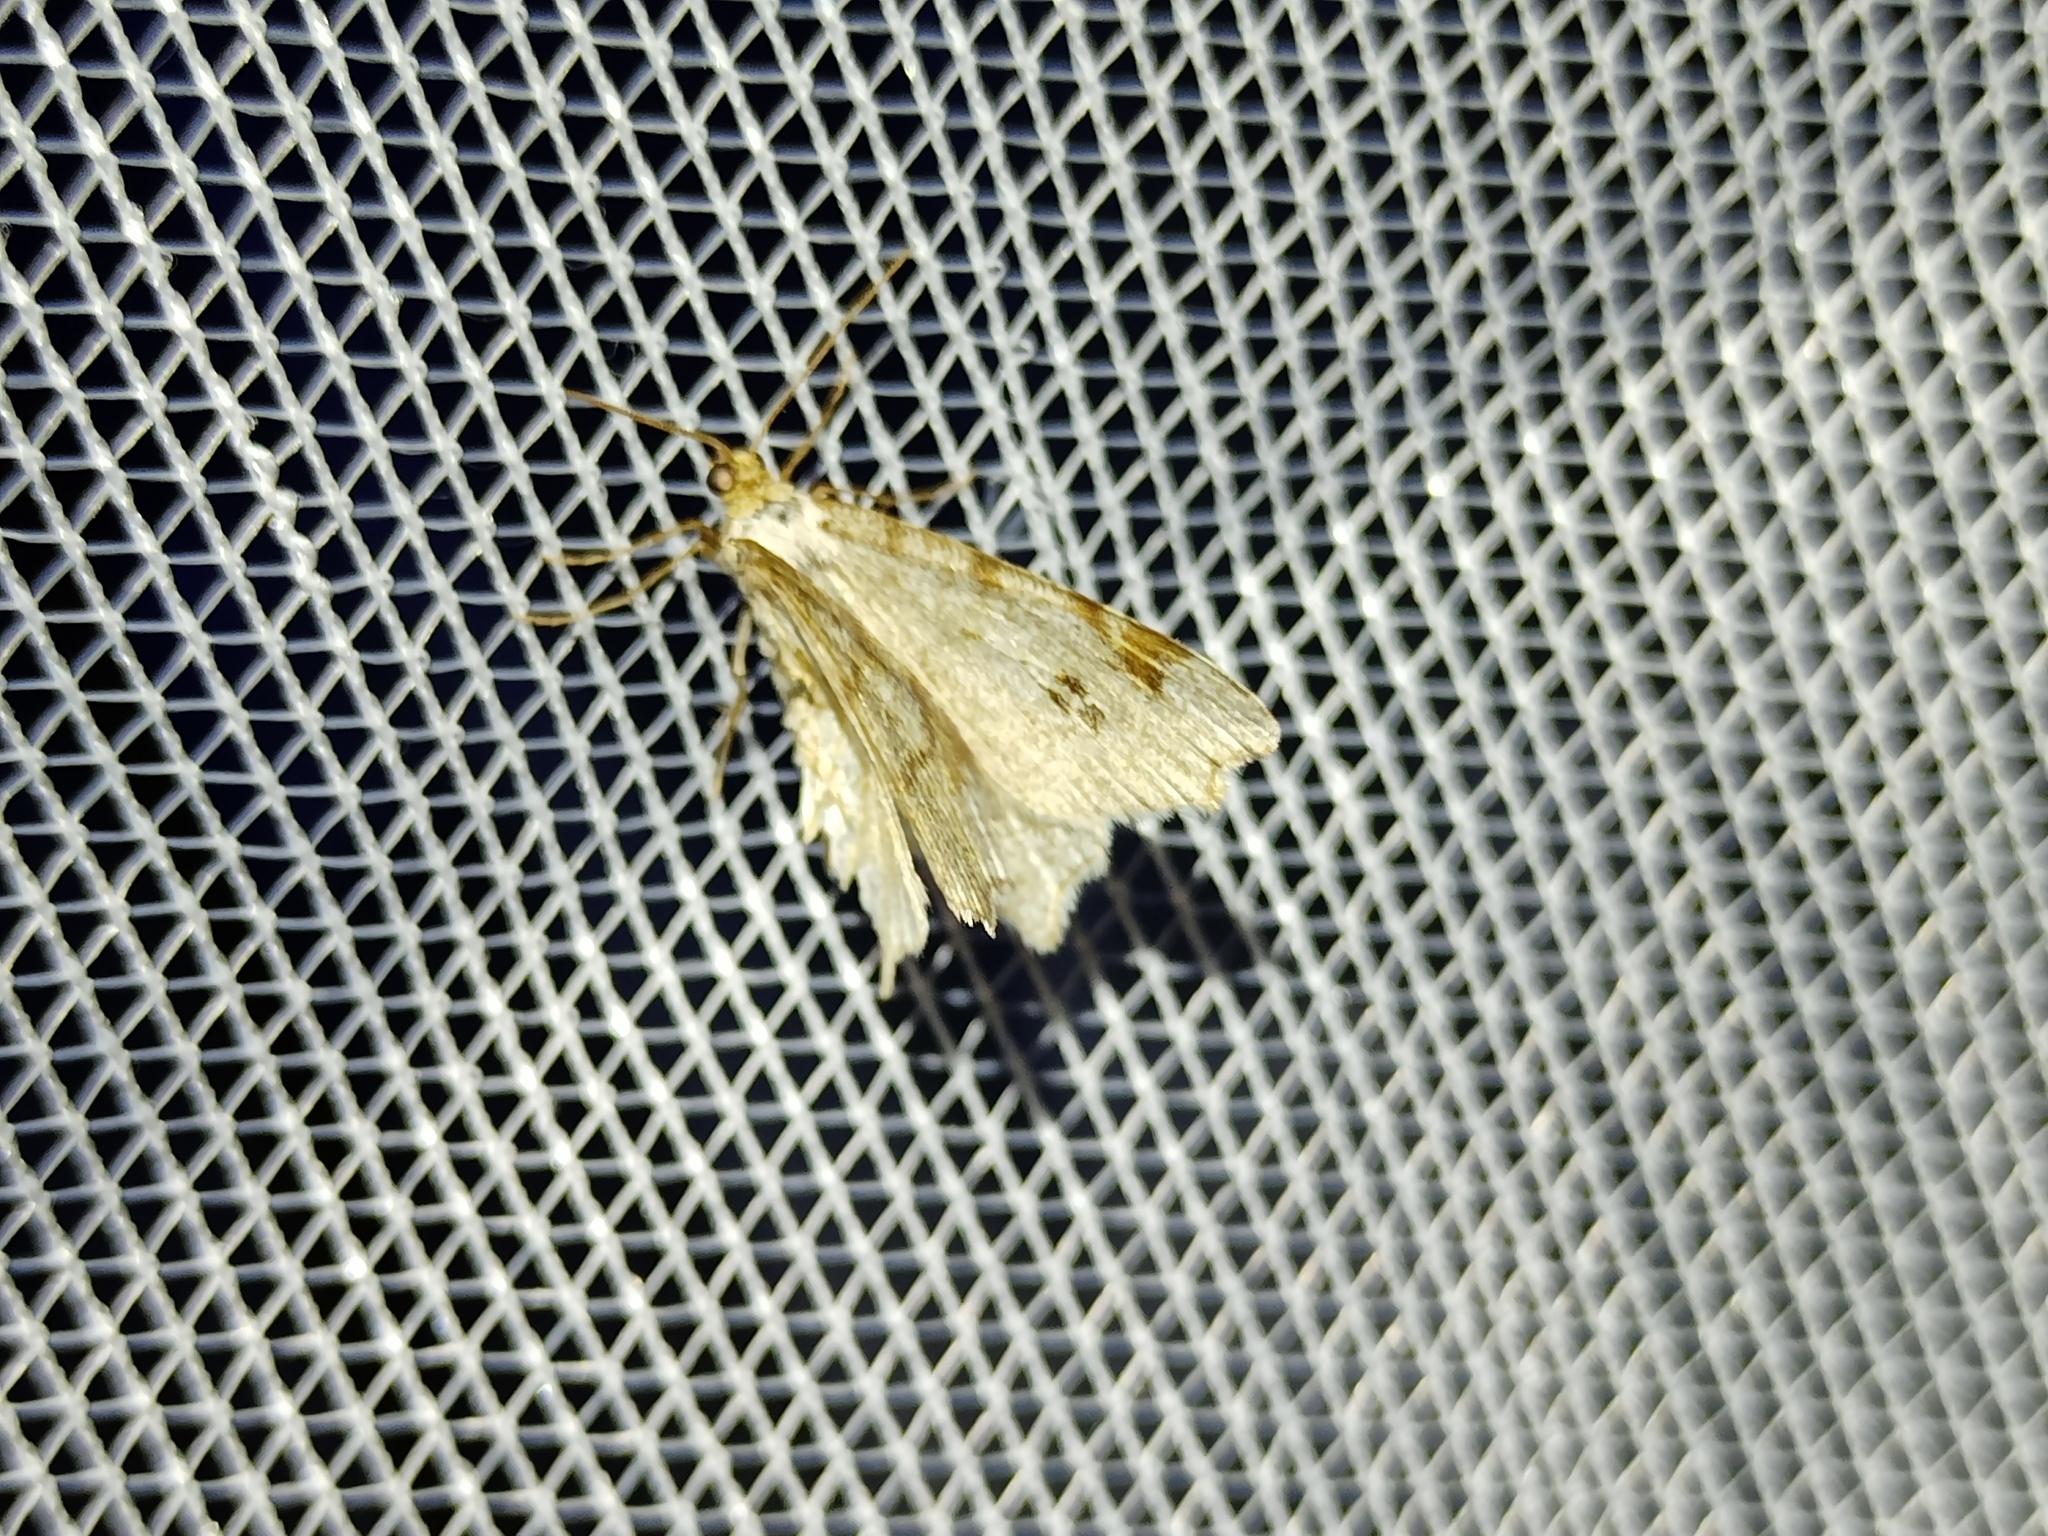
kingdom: Animalia
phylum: Arthropoda
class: Insecta
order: Lepidoptera
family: Geometridae
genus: Macaria
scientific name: Macaria notata
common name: Peacock moth
